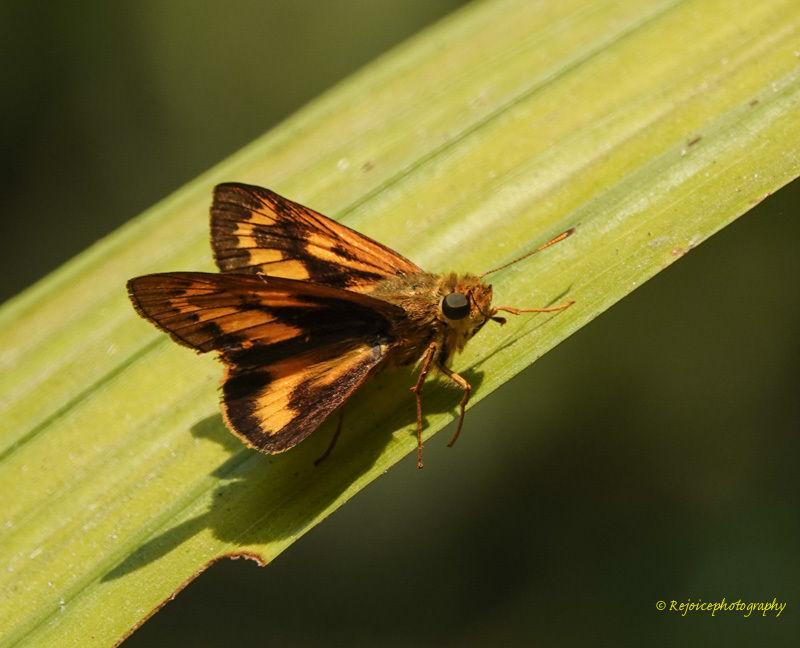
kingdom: Animalia
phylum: Arthropoda
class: Insecta
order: Lepidoptera
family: Hesperiidae
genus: Telicota
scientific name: Telicota bambusae
